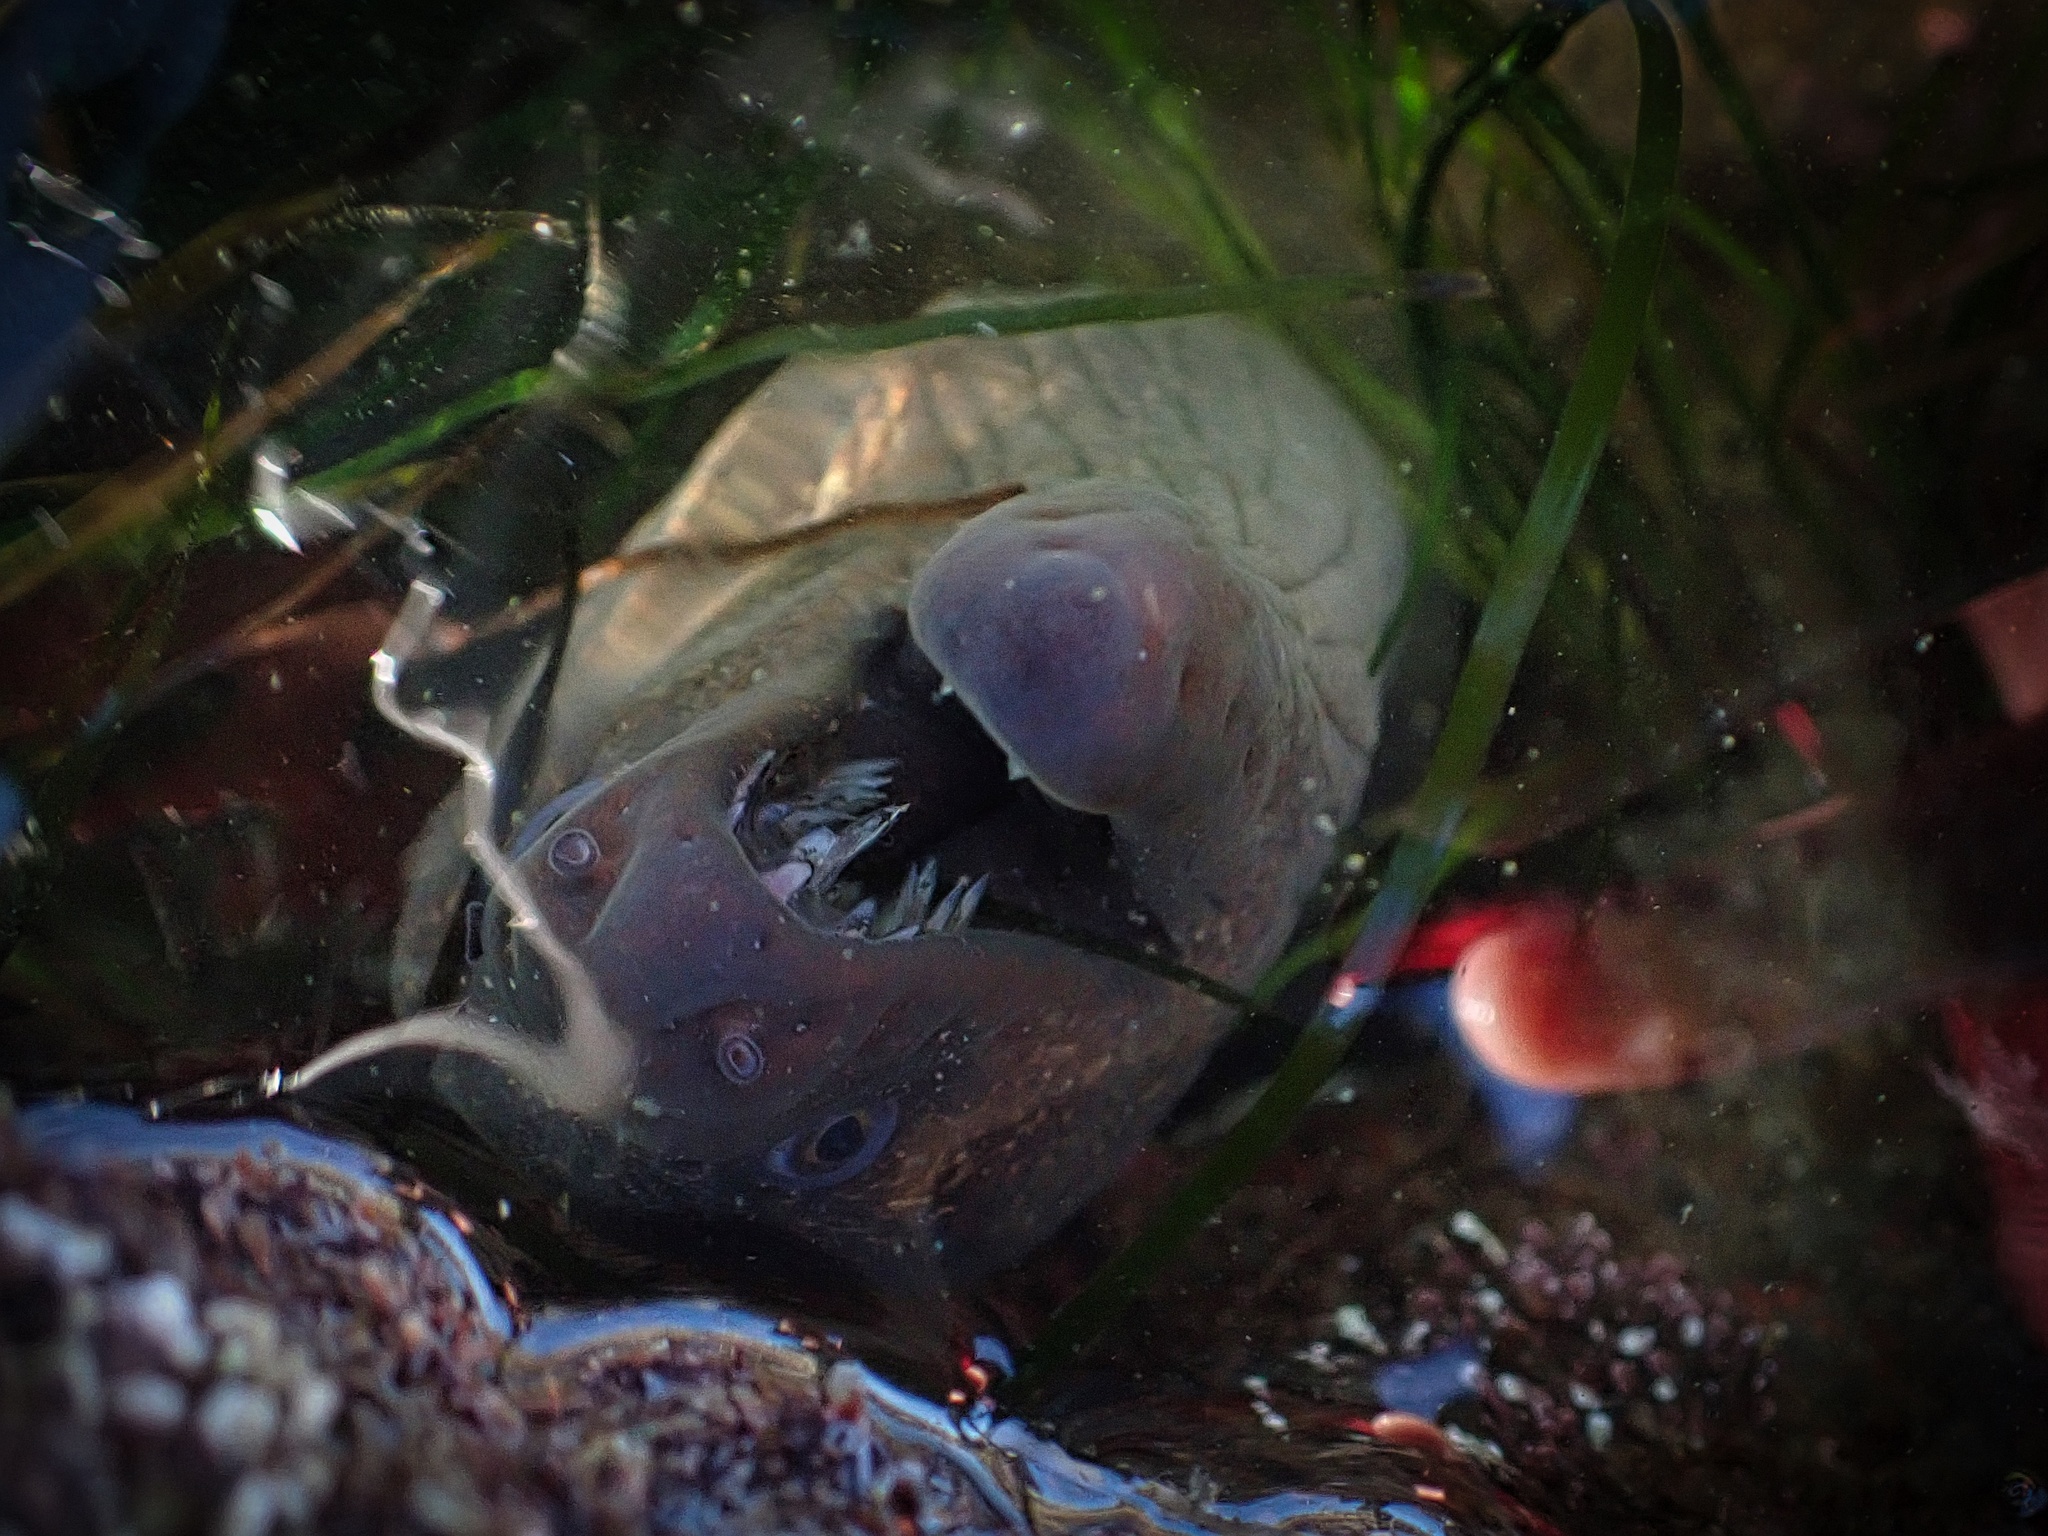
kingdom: Animalia
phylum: Chordata
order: Anguilliformes
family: Muraenidae
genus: Gymnothorax
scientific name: Gymnothorax mordax
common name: California moray
